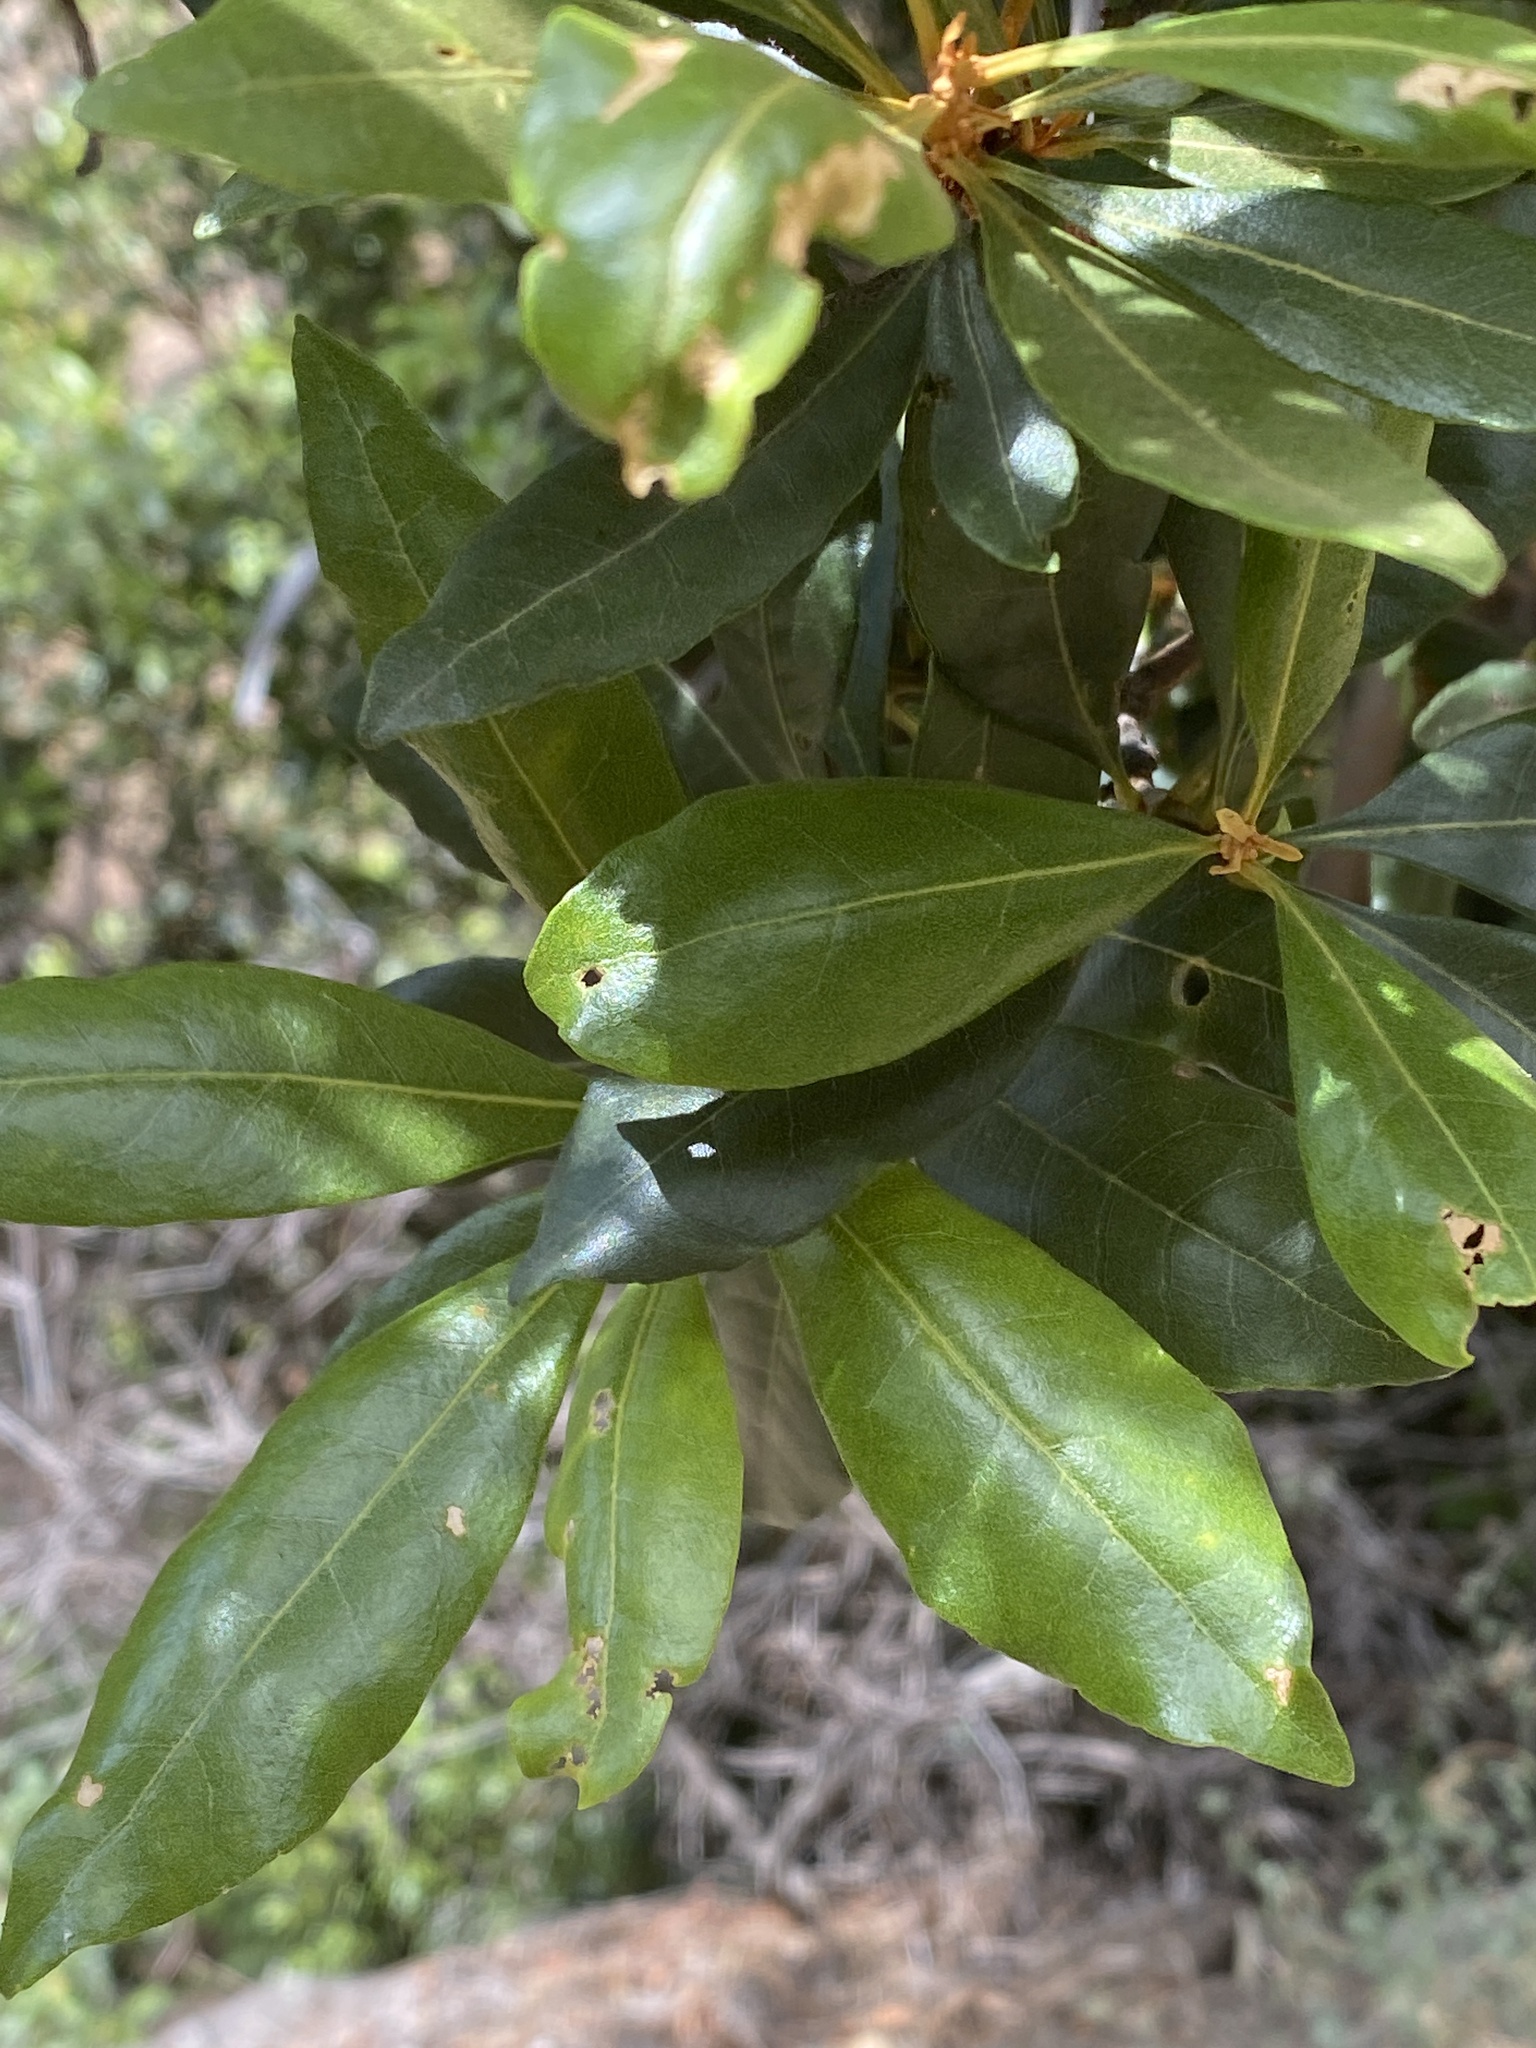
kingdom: Plantae
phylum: Tracheophyta
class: Magnoliopsida
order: Fagales
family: Myricaceae
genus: Morella
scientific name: Morella faya
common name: Firetree
